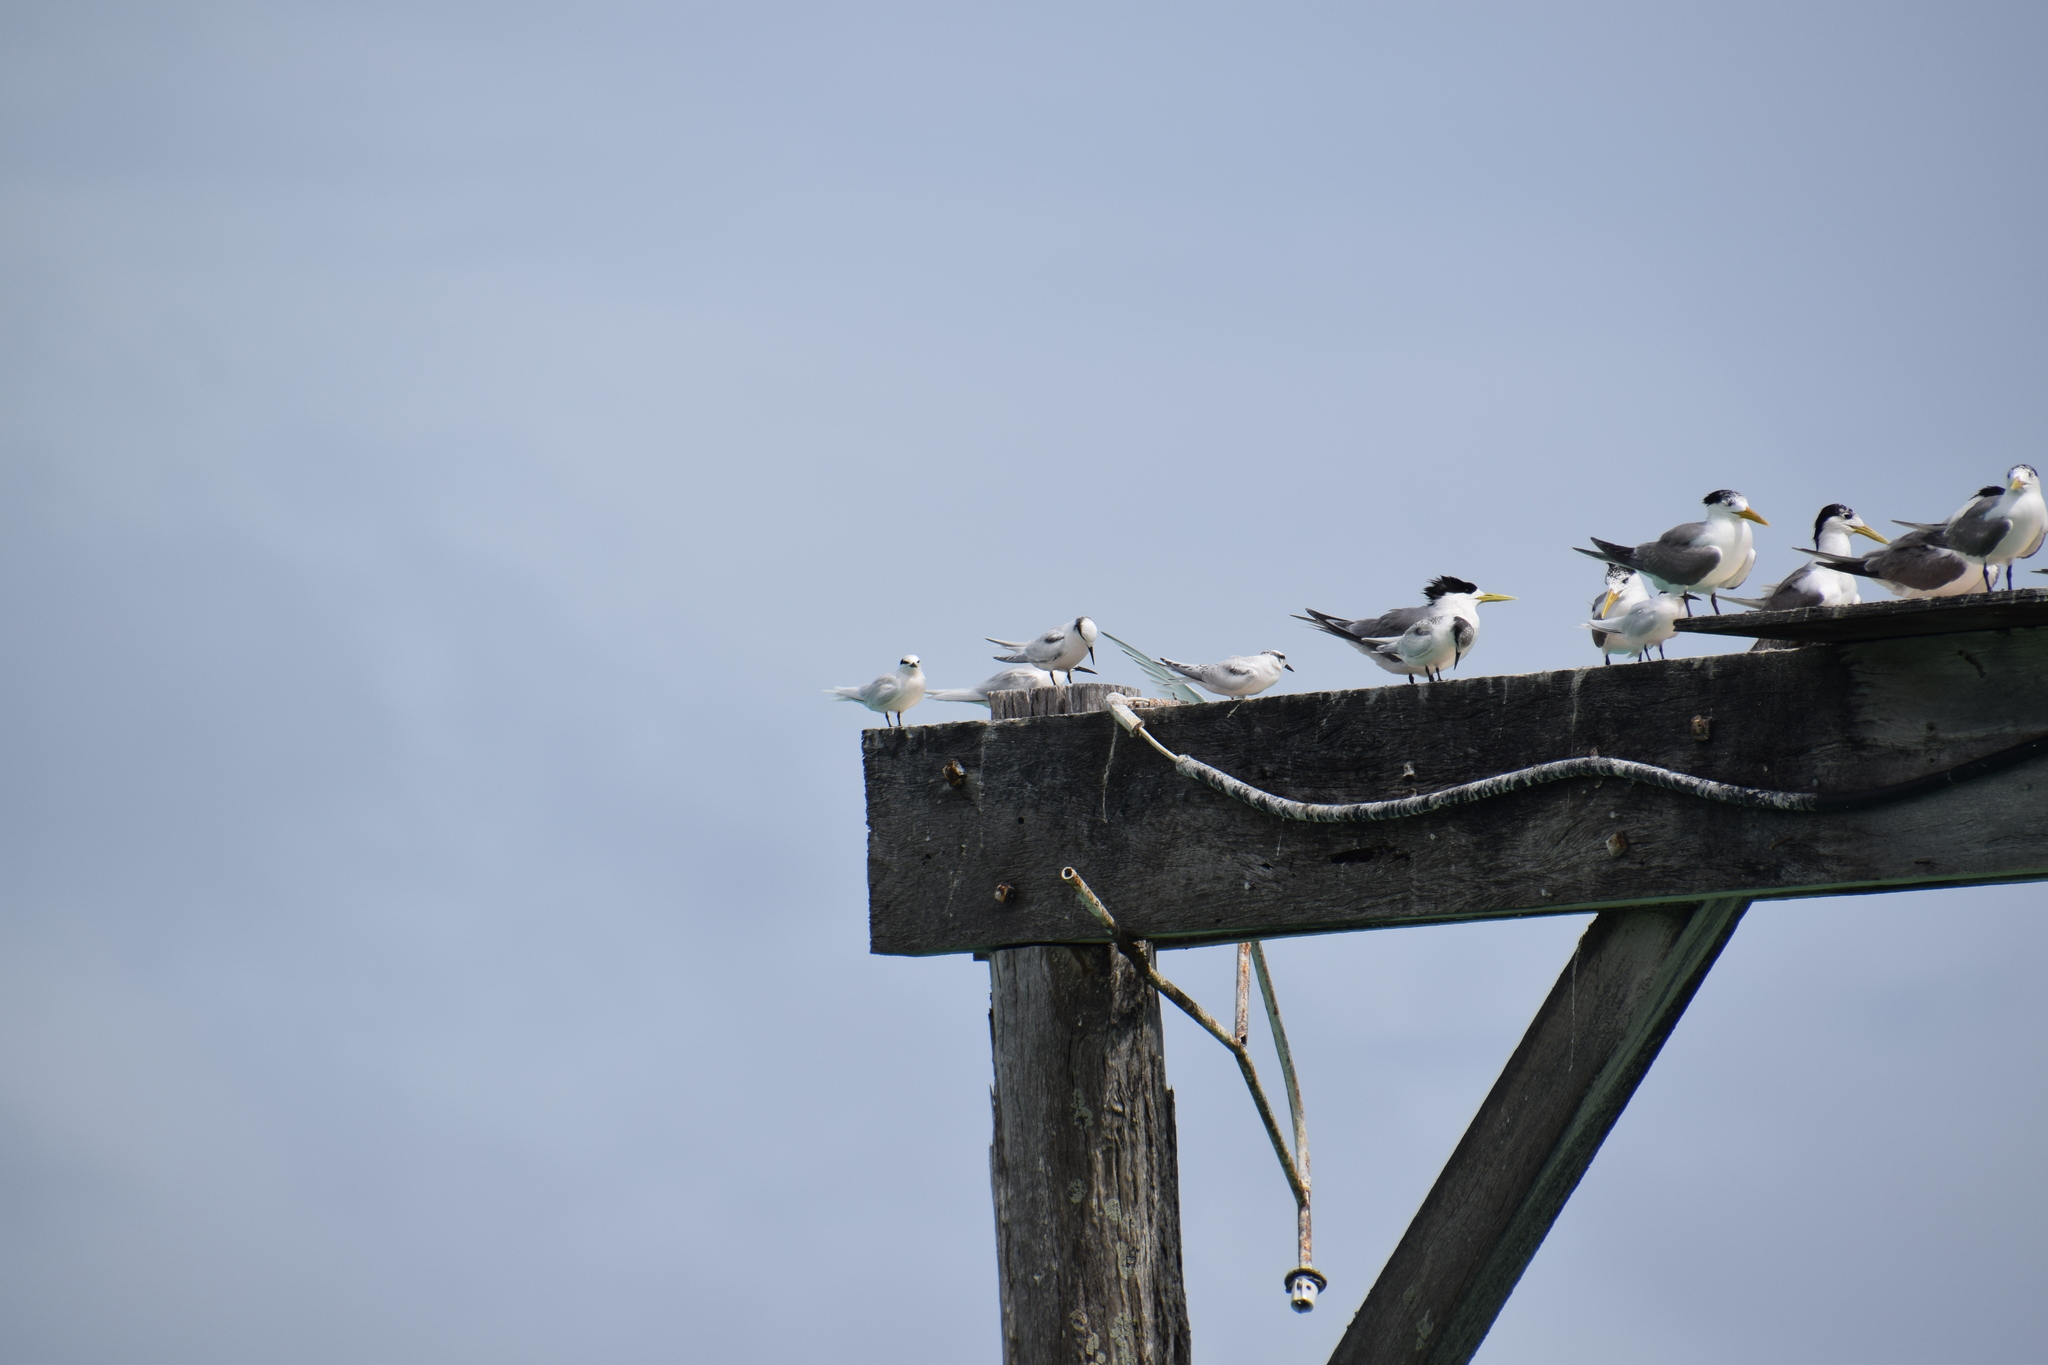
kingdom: Animalia
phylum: Chordata
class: Aves
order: Charadriiformes
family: Laridae
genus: Thalasseus
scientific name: Thalasseus bergii
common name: Greater crested tern
